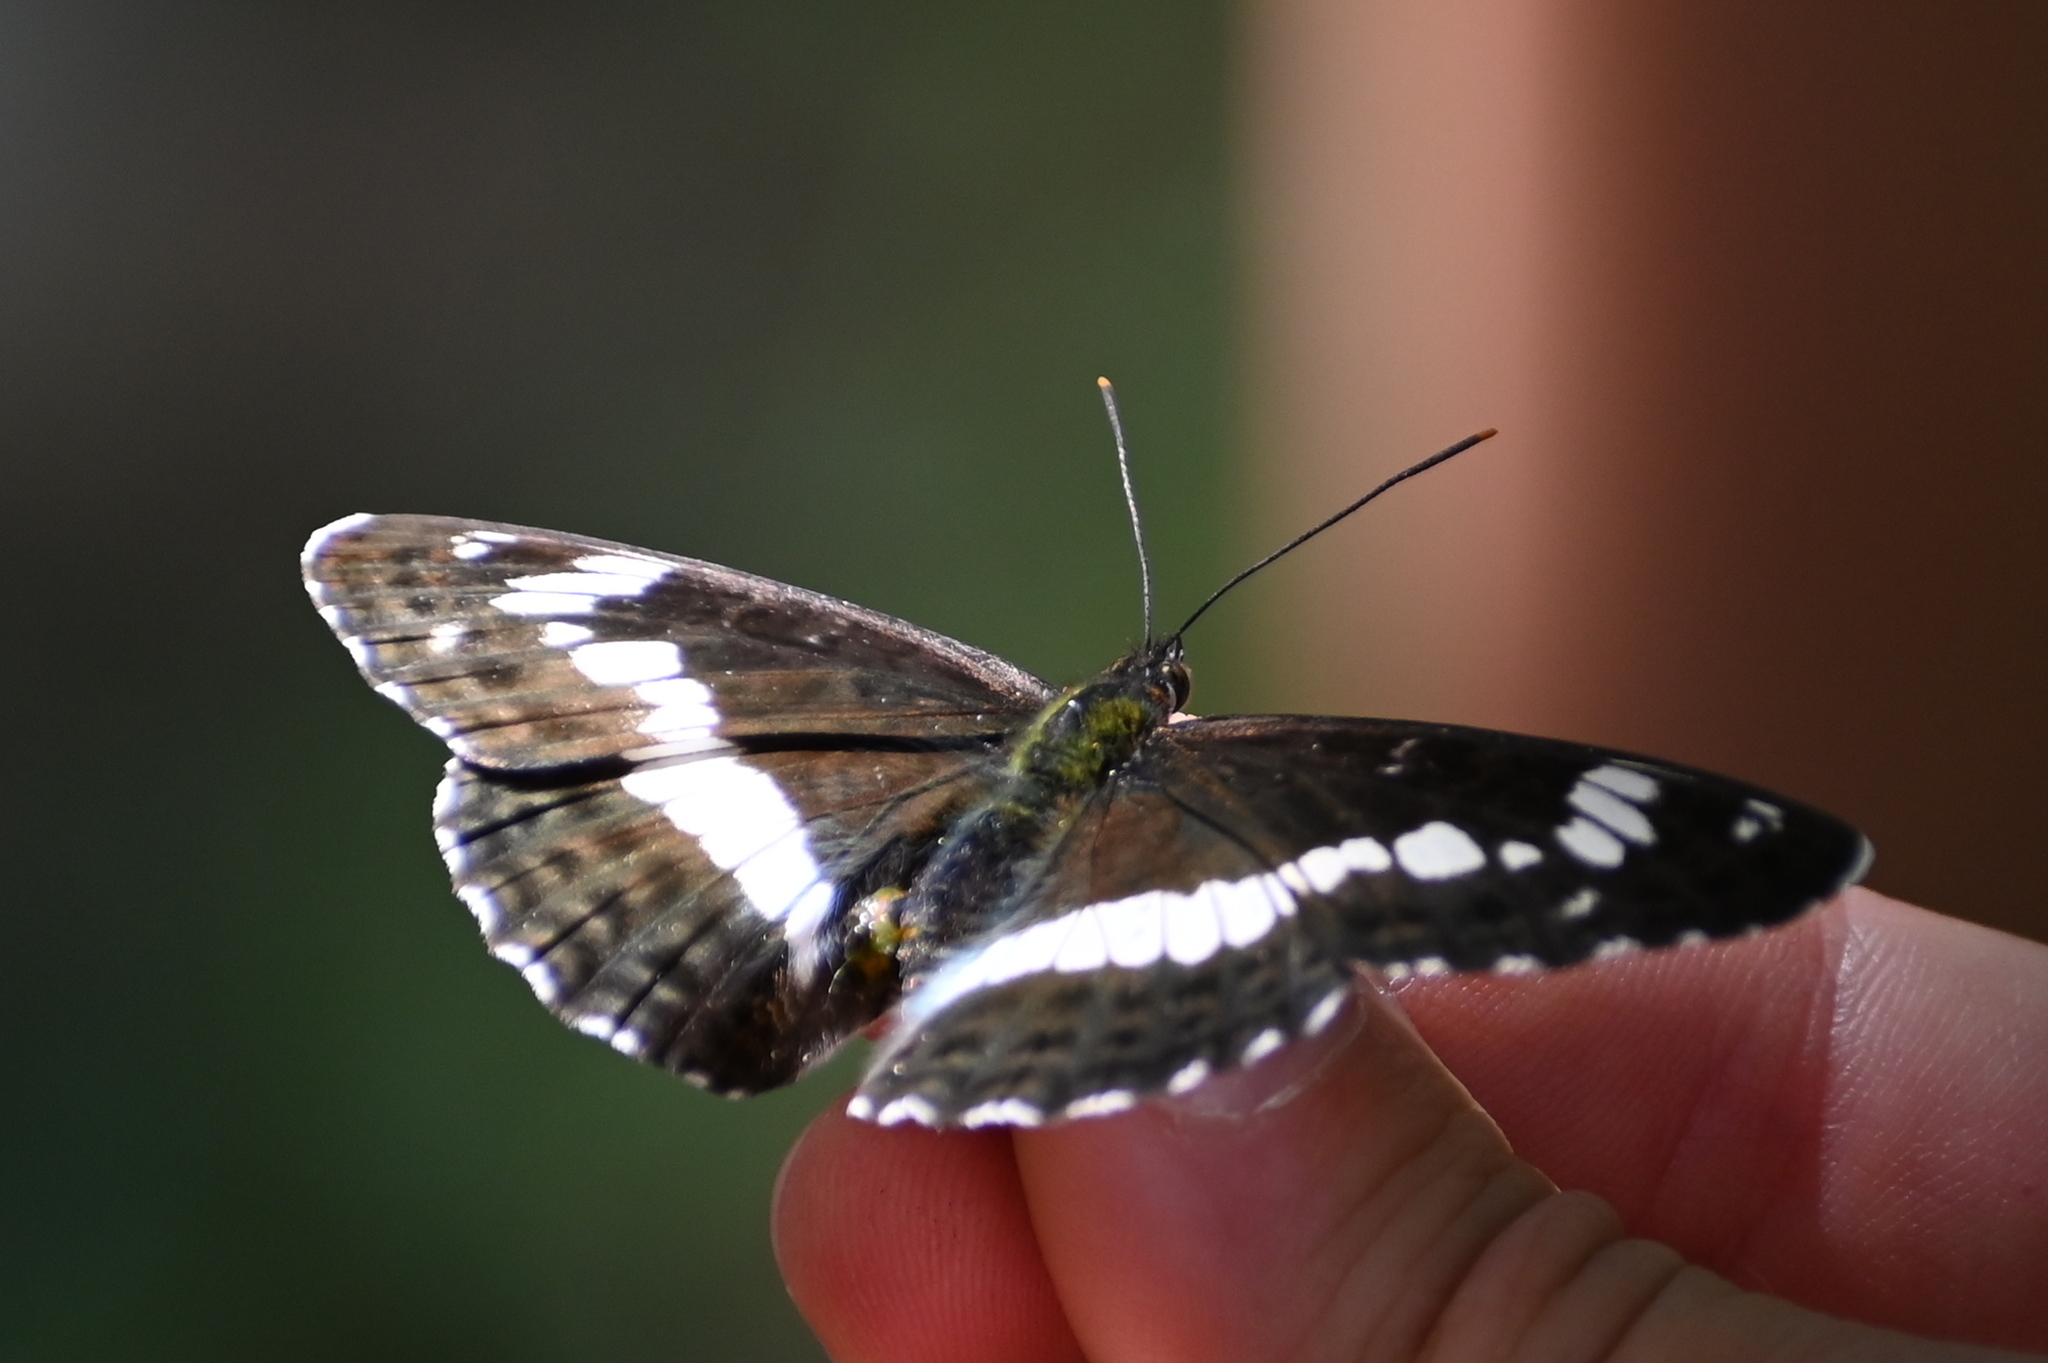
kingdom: Animalia
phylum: Arthropoda
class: Insecta
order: Lepidoptera
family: Nymphalidae
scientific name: Nymphalidae
